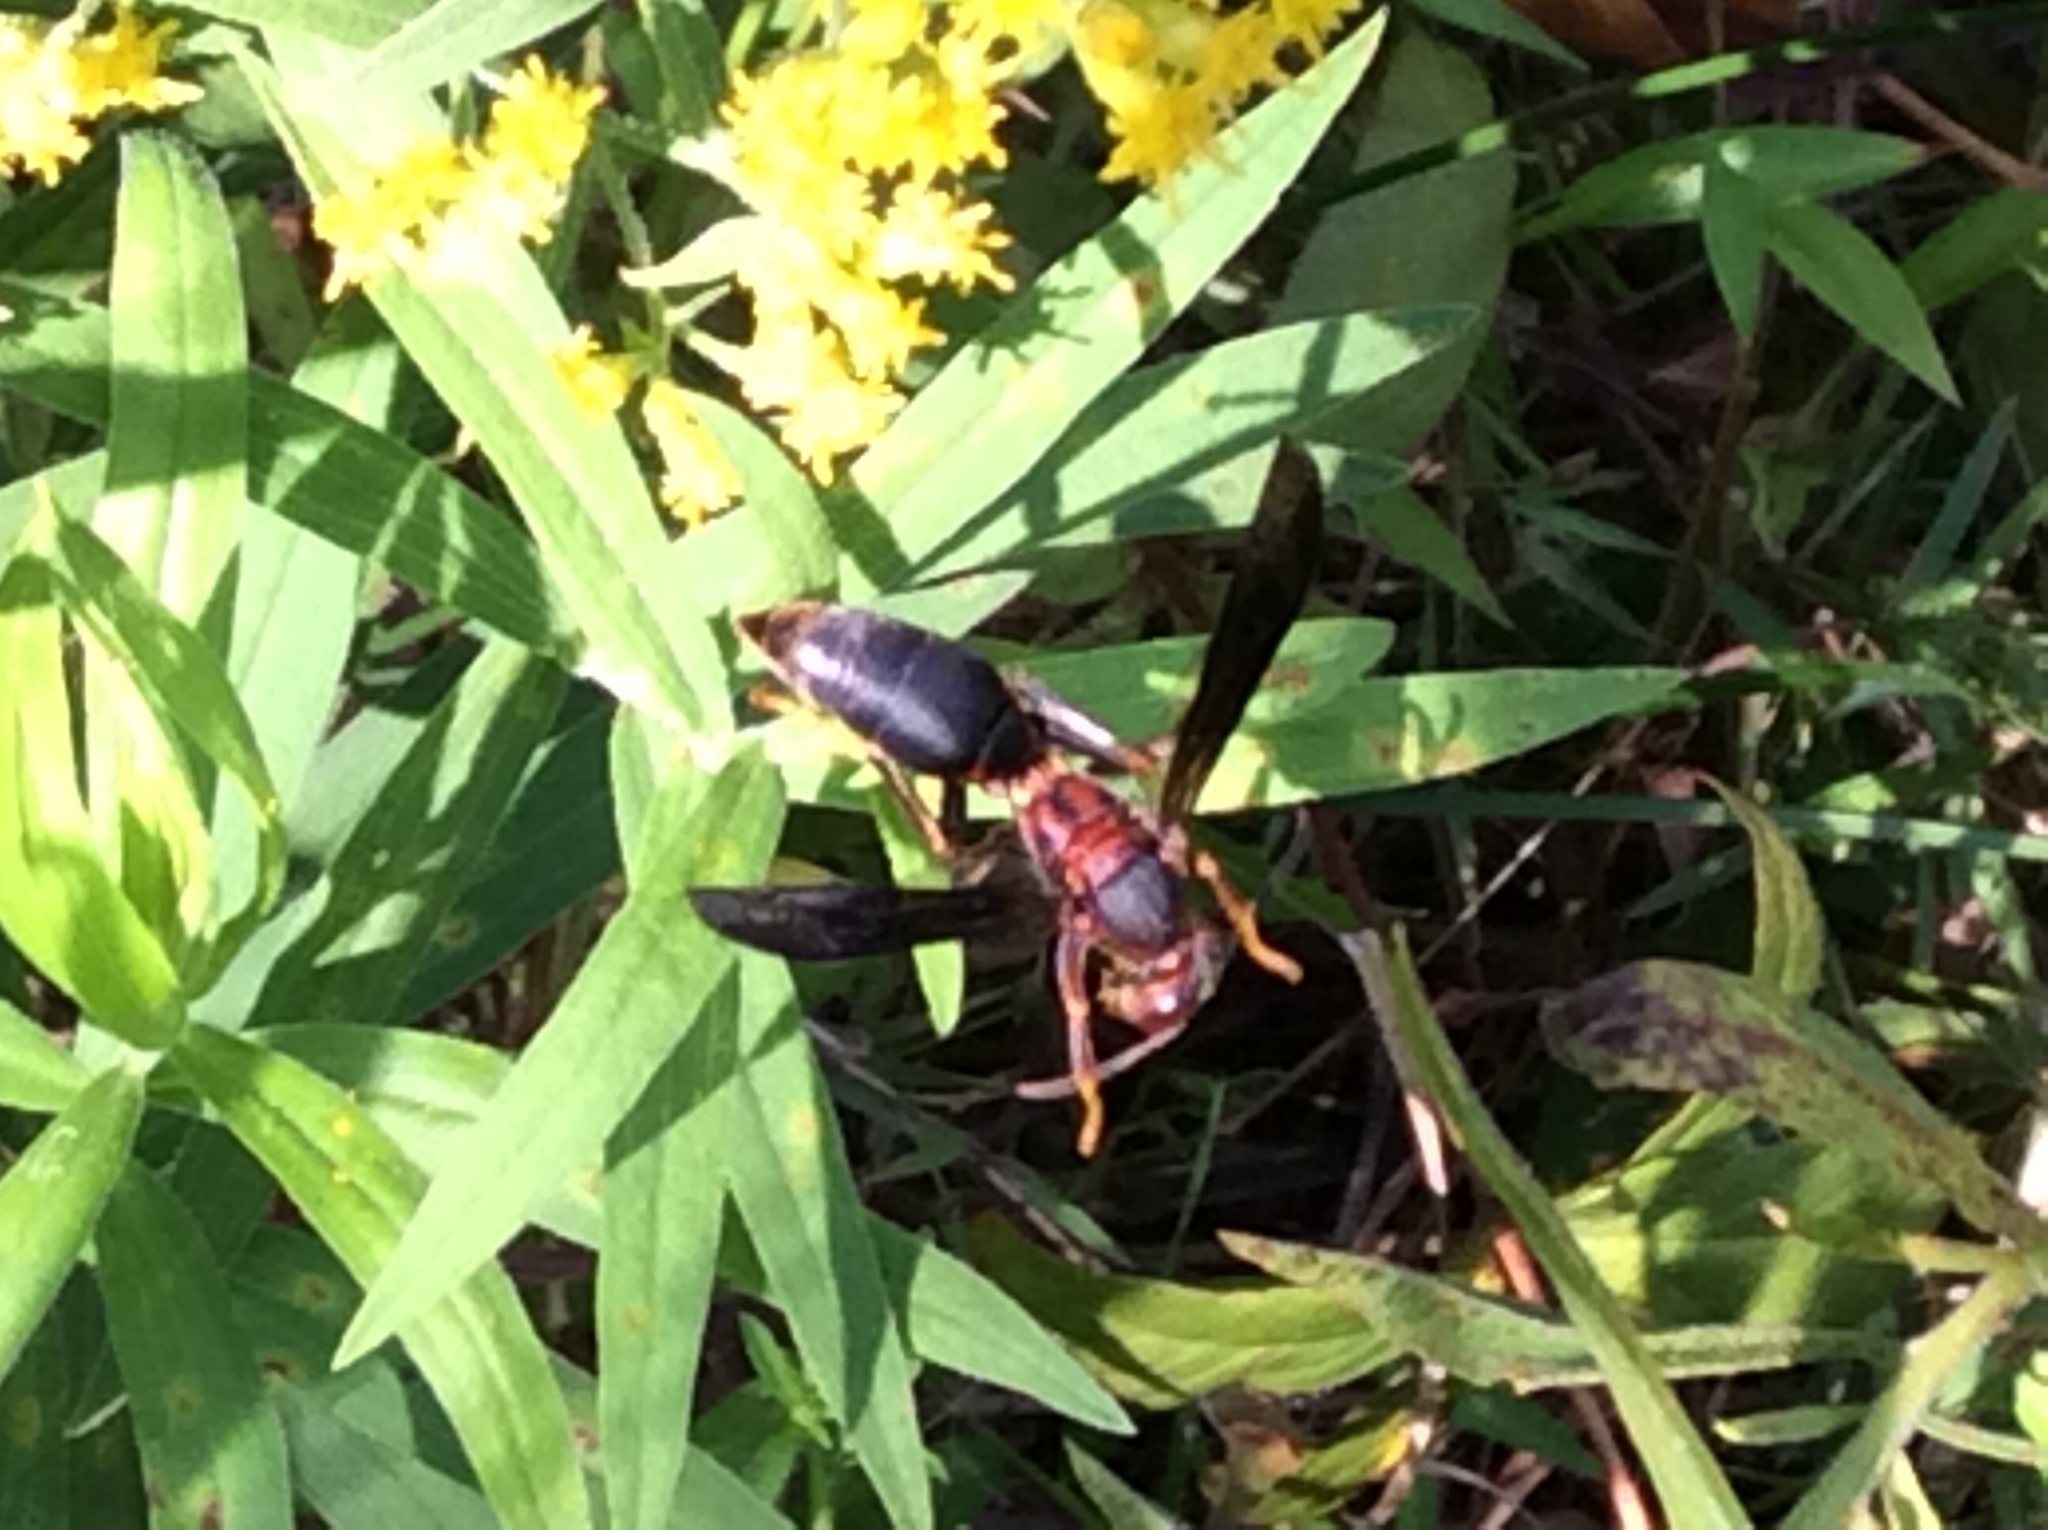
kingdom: Animalia
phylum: Arthropoda
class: Insecta
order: Hymenoptera
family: Eumenidae
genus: Polistes
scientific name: Polistes metricus
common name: Metric paper wasp
